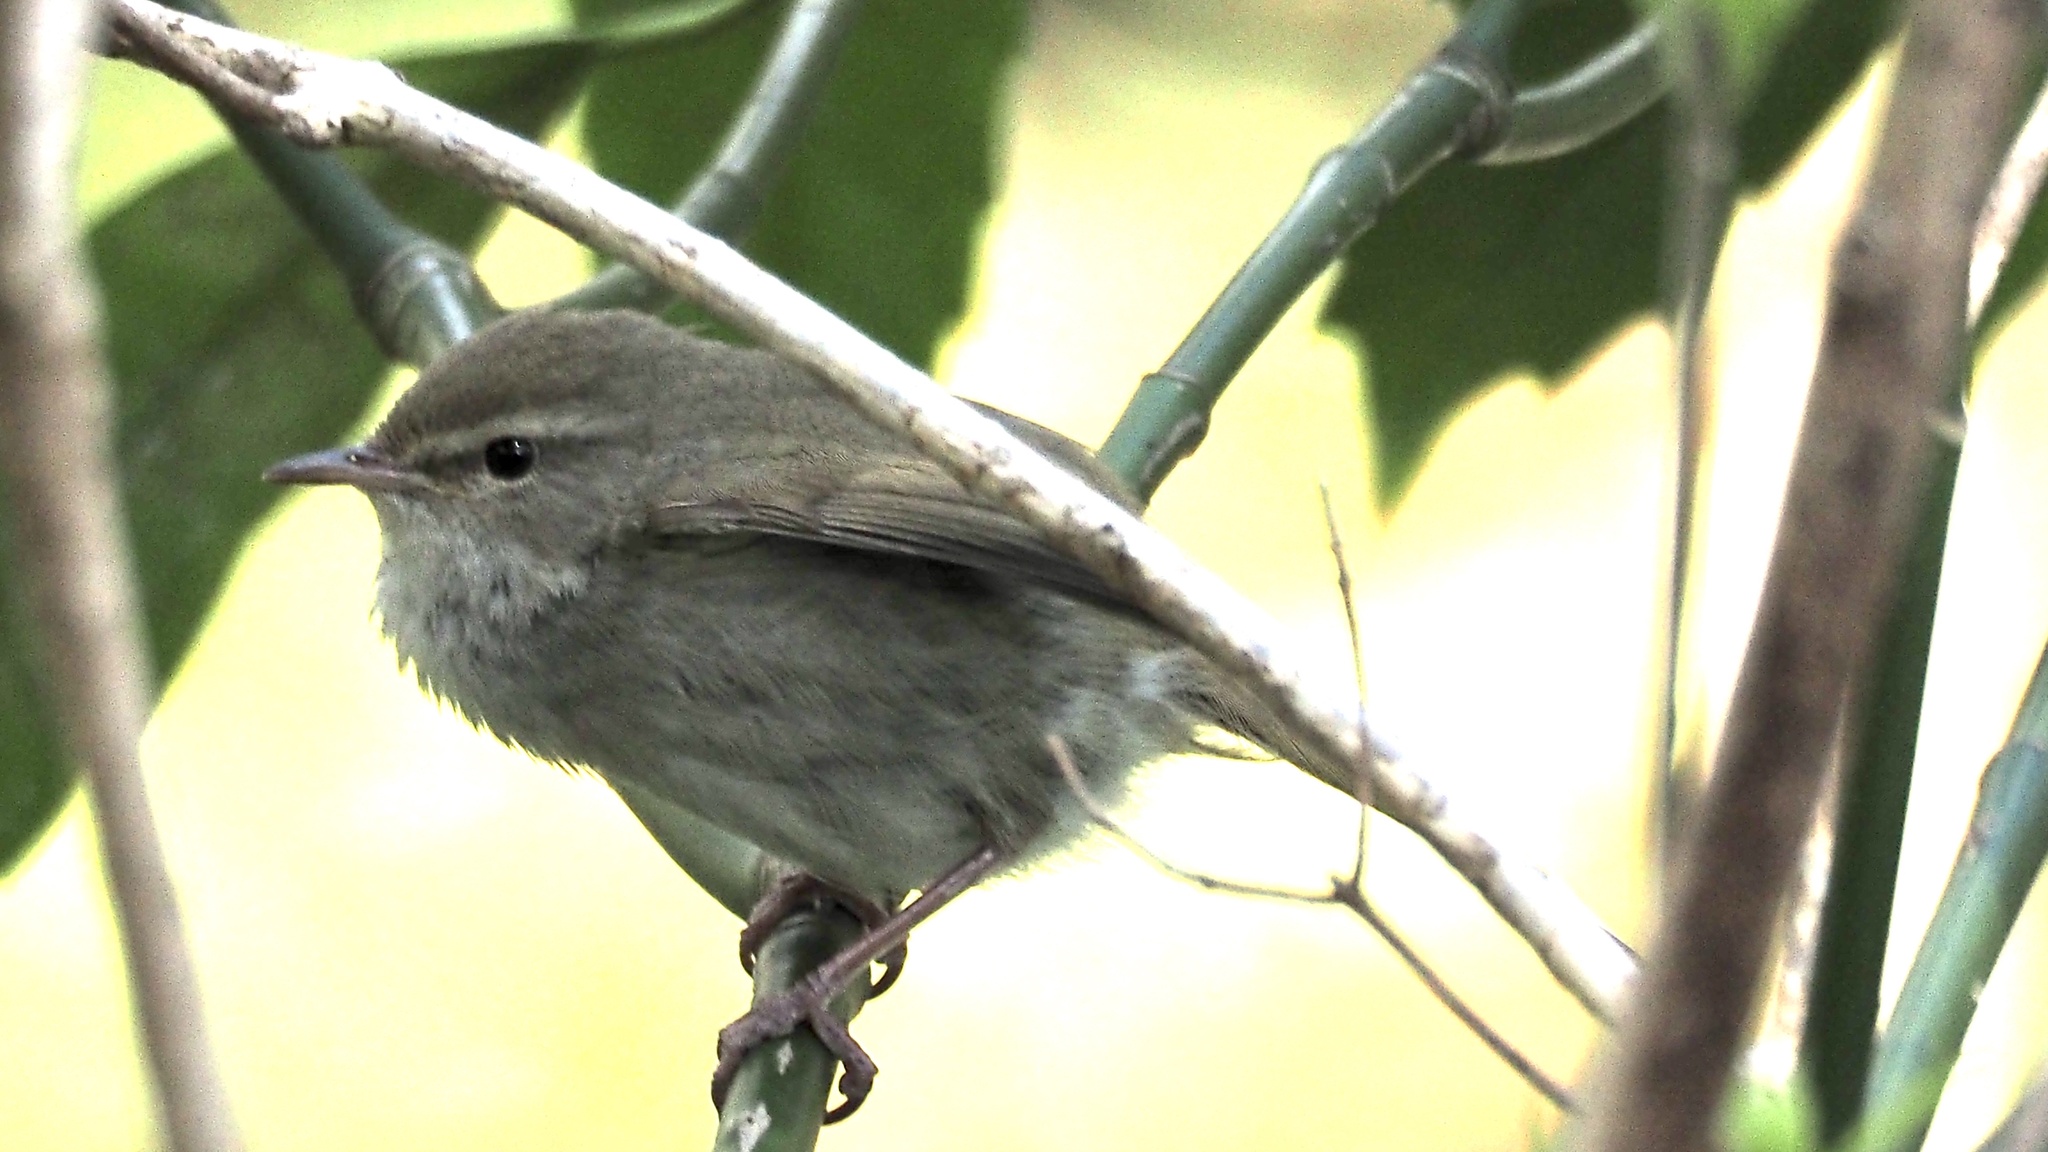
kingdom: Animalia
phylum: Chordata
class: Aves
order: Passeriformes
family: Cettiidae
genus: Horornis
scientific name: Horornis diphone
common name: Japanese bush warbler
